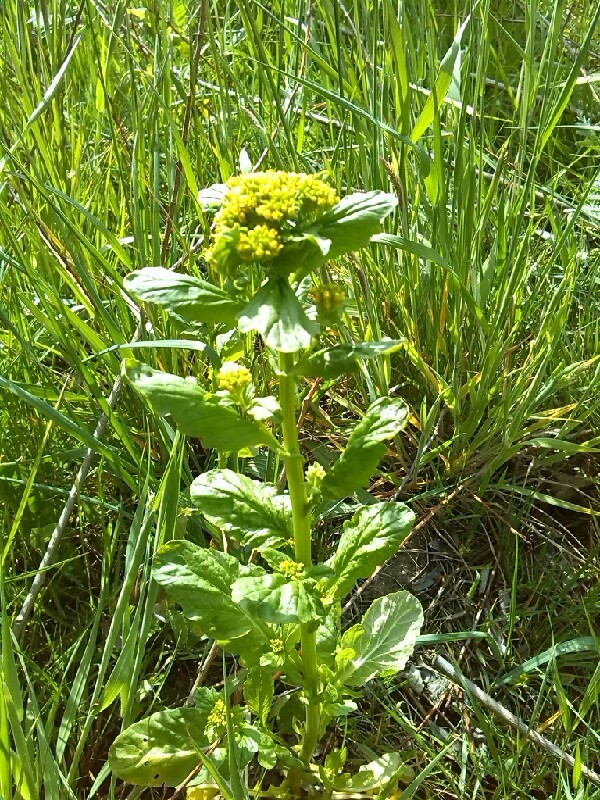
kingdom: Plantae
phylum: Tracheophyta
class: Magnoliopsida
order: Brassicales
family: Brassicaceae
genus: Barbarea
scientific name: Barbarea stricta
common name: Small-flowered winter-cress
